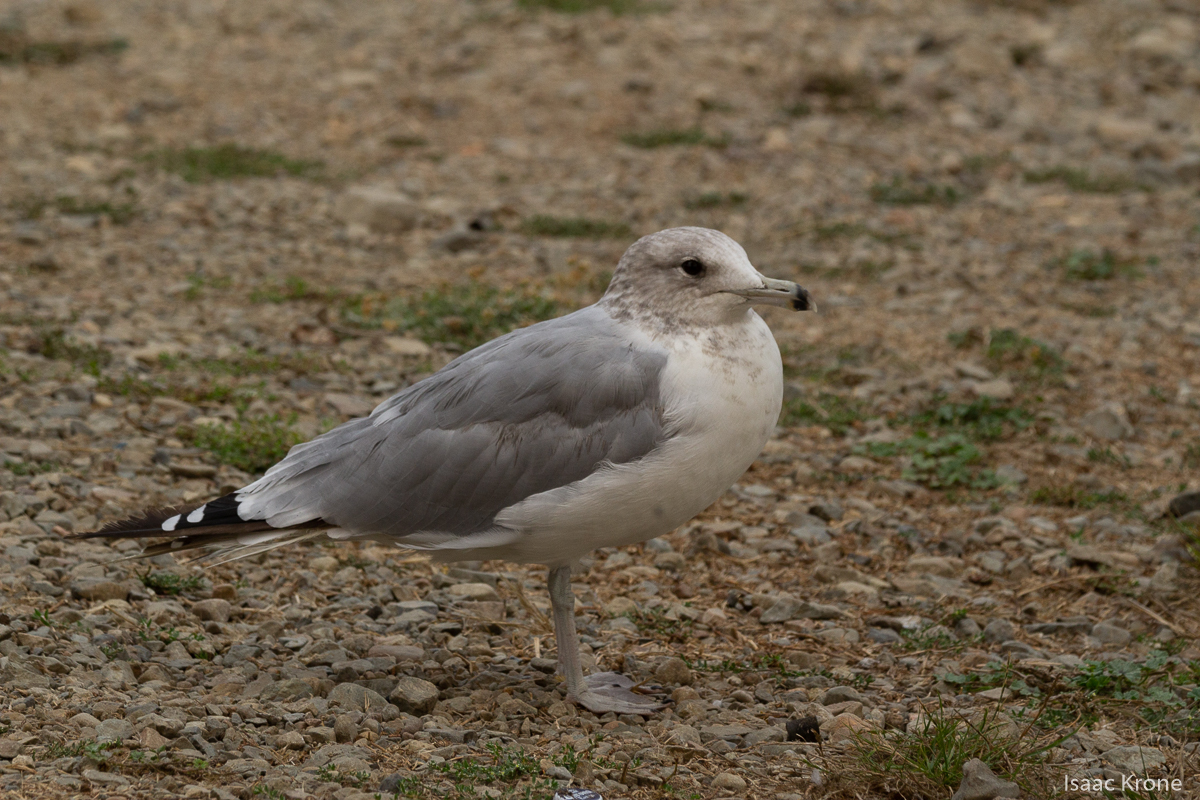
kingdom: Animalia
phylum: Chordata
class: Aves
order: Charadriiformes
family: Laridae
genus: Larus
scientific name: Larus californicus
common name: California gull
